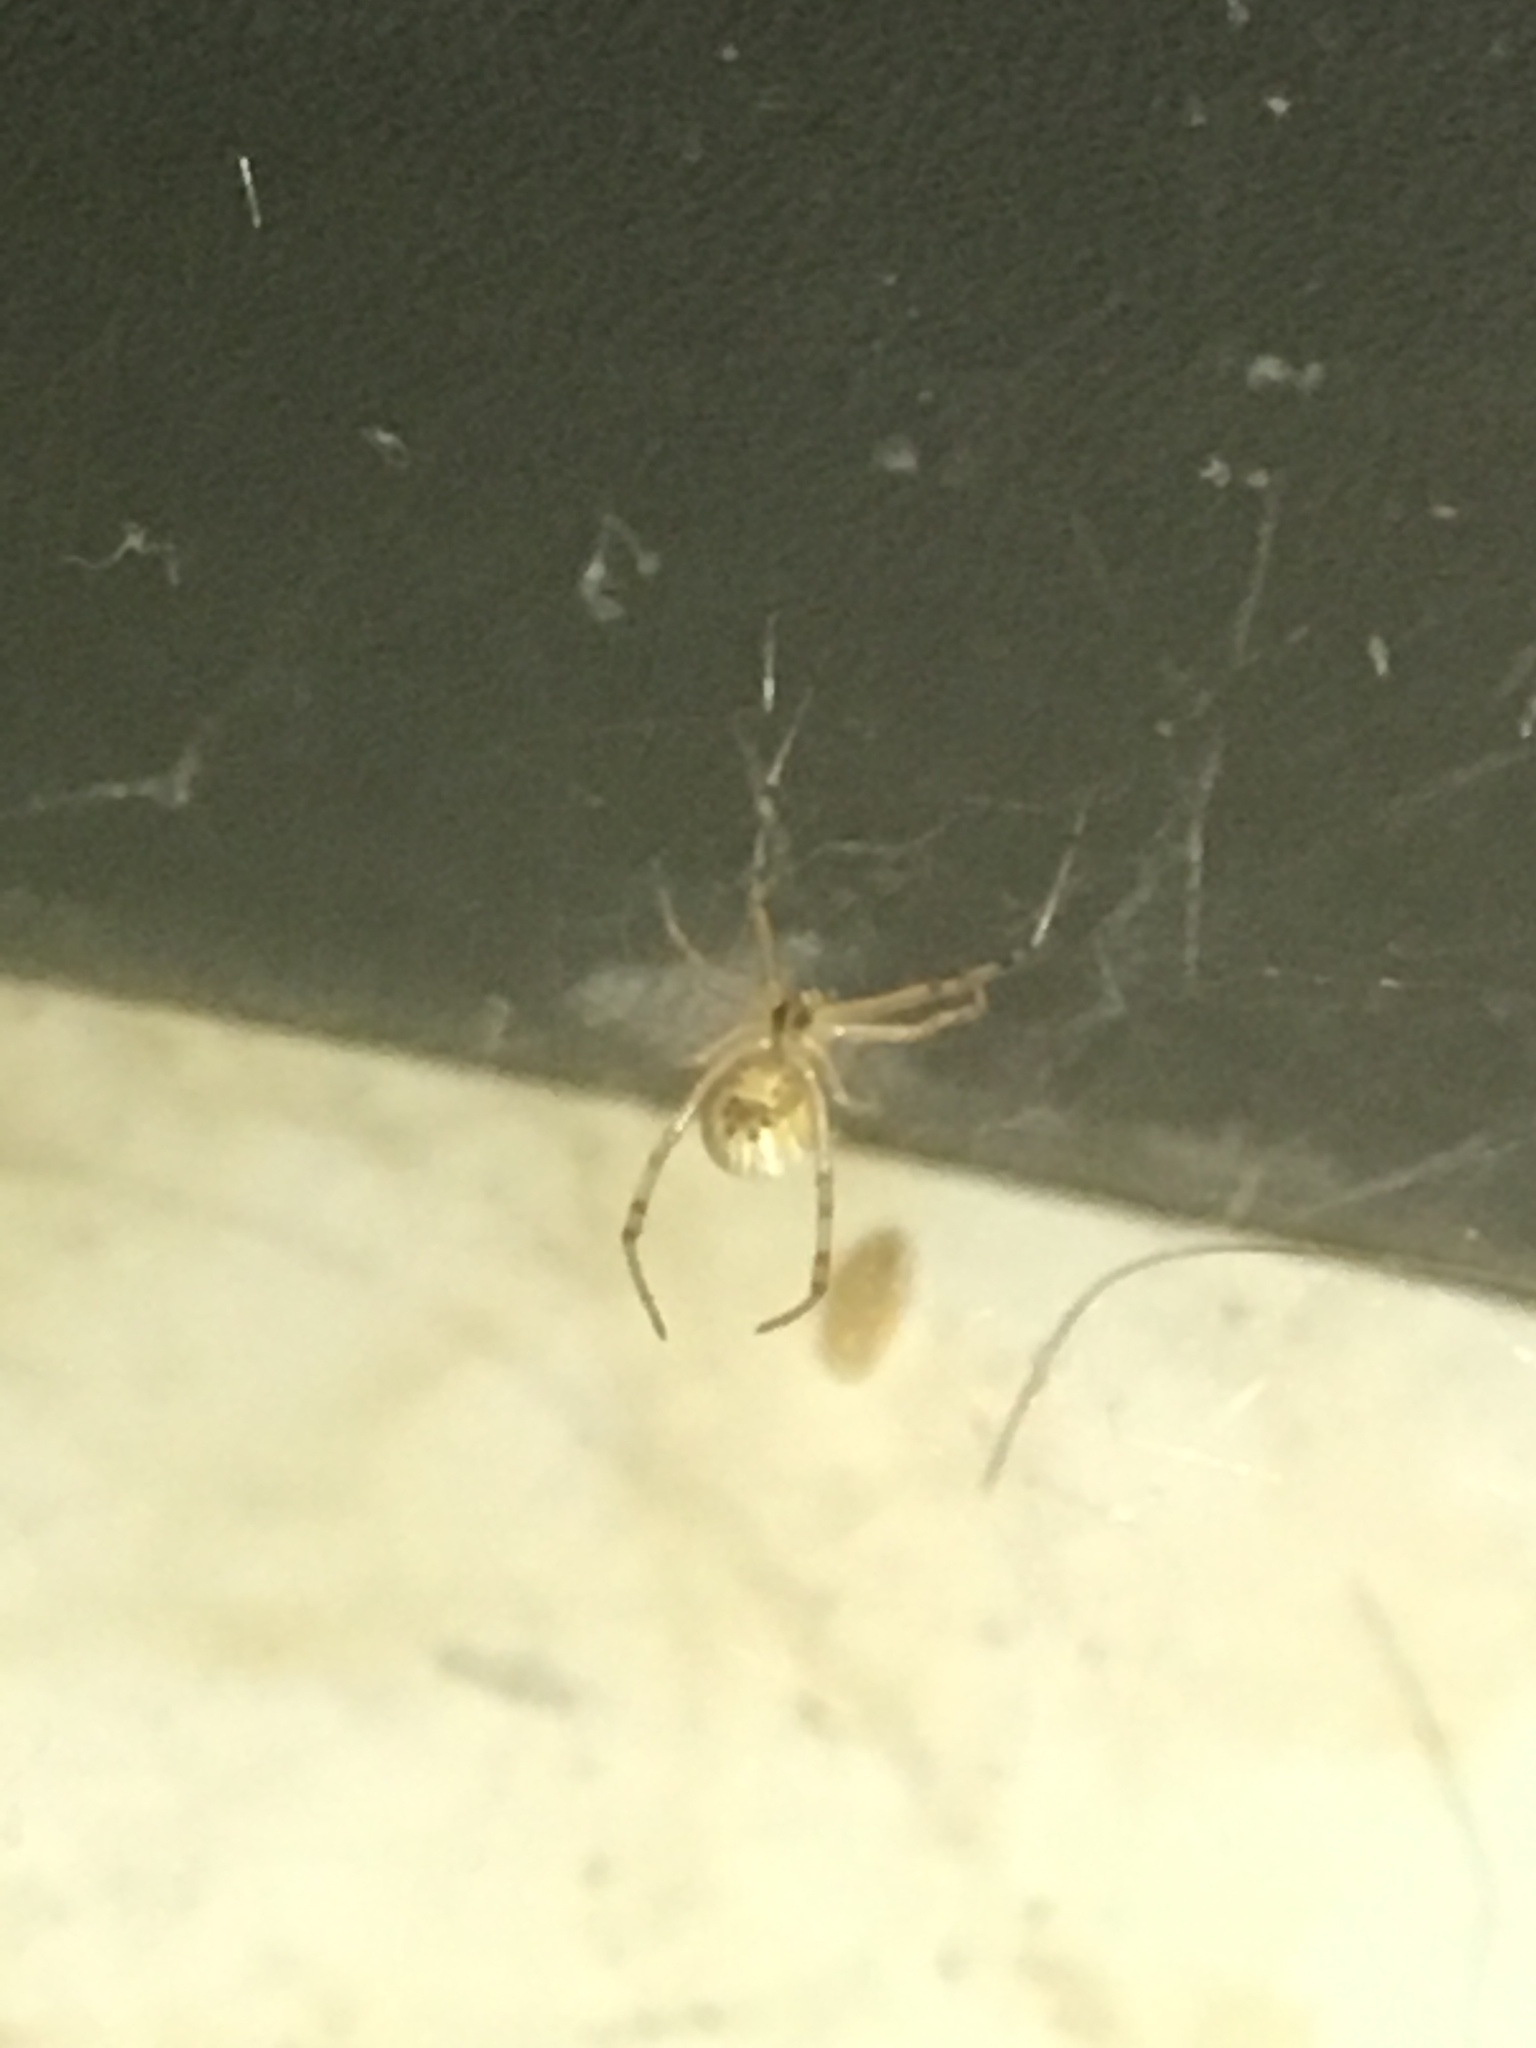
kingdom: Animalia
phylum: Arthropoda
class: Arachnida
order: Araneae
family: Theridiidae
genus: Latrodectus
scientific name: Latrodectus geometricus
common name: Brown widow spider
